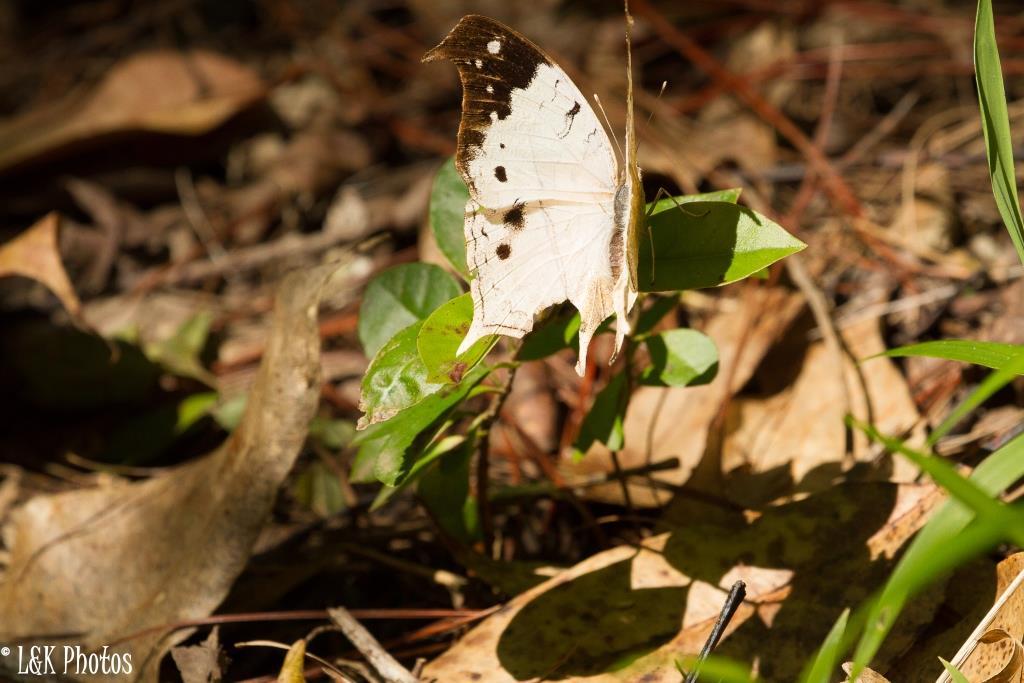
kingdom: Animalia
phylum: Arthropoda
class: Insecta
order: Lepidoptera
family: Nymphalidae
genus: Salamis
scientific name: Salamis Protogoniomorpha duprei
